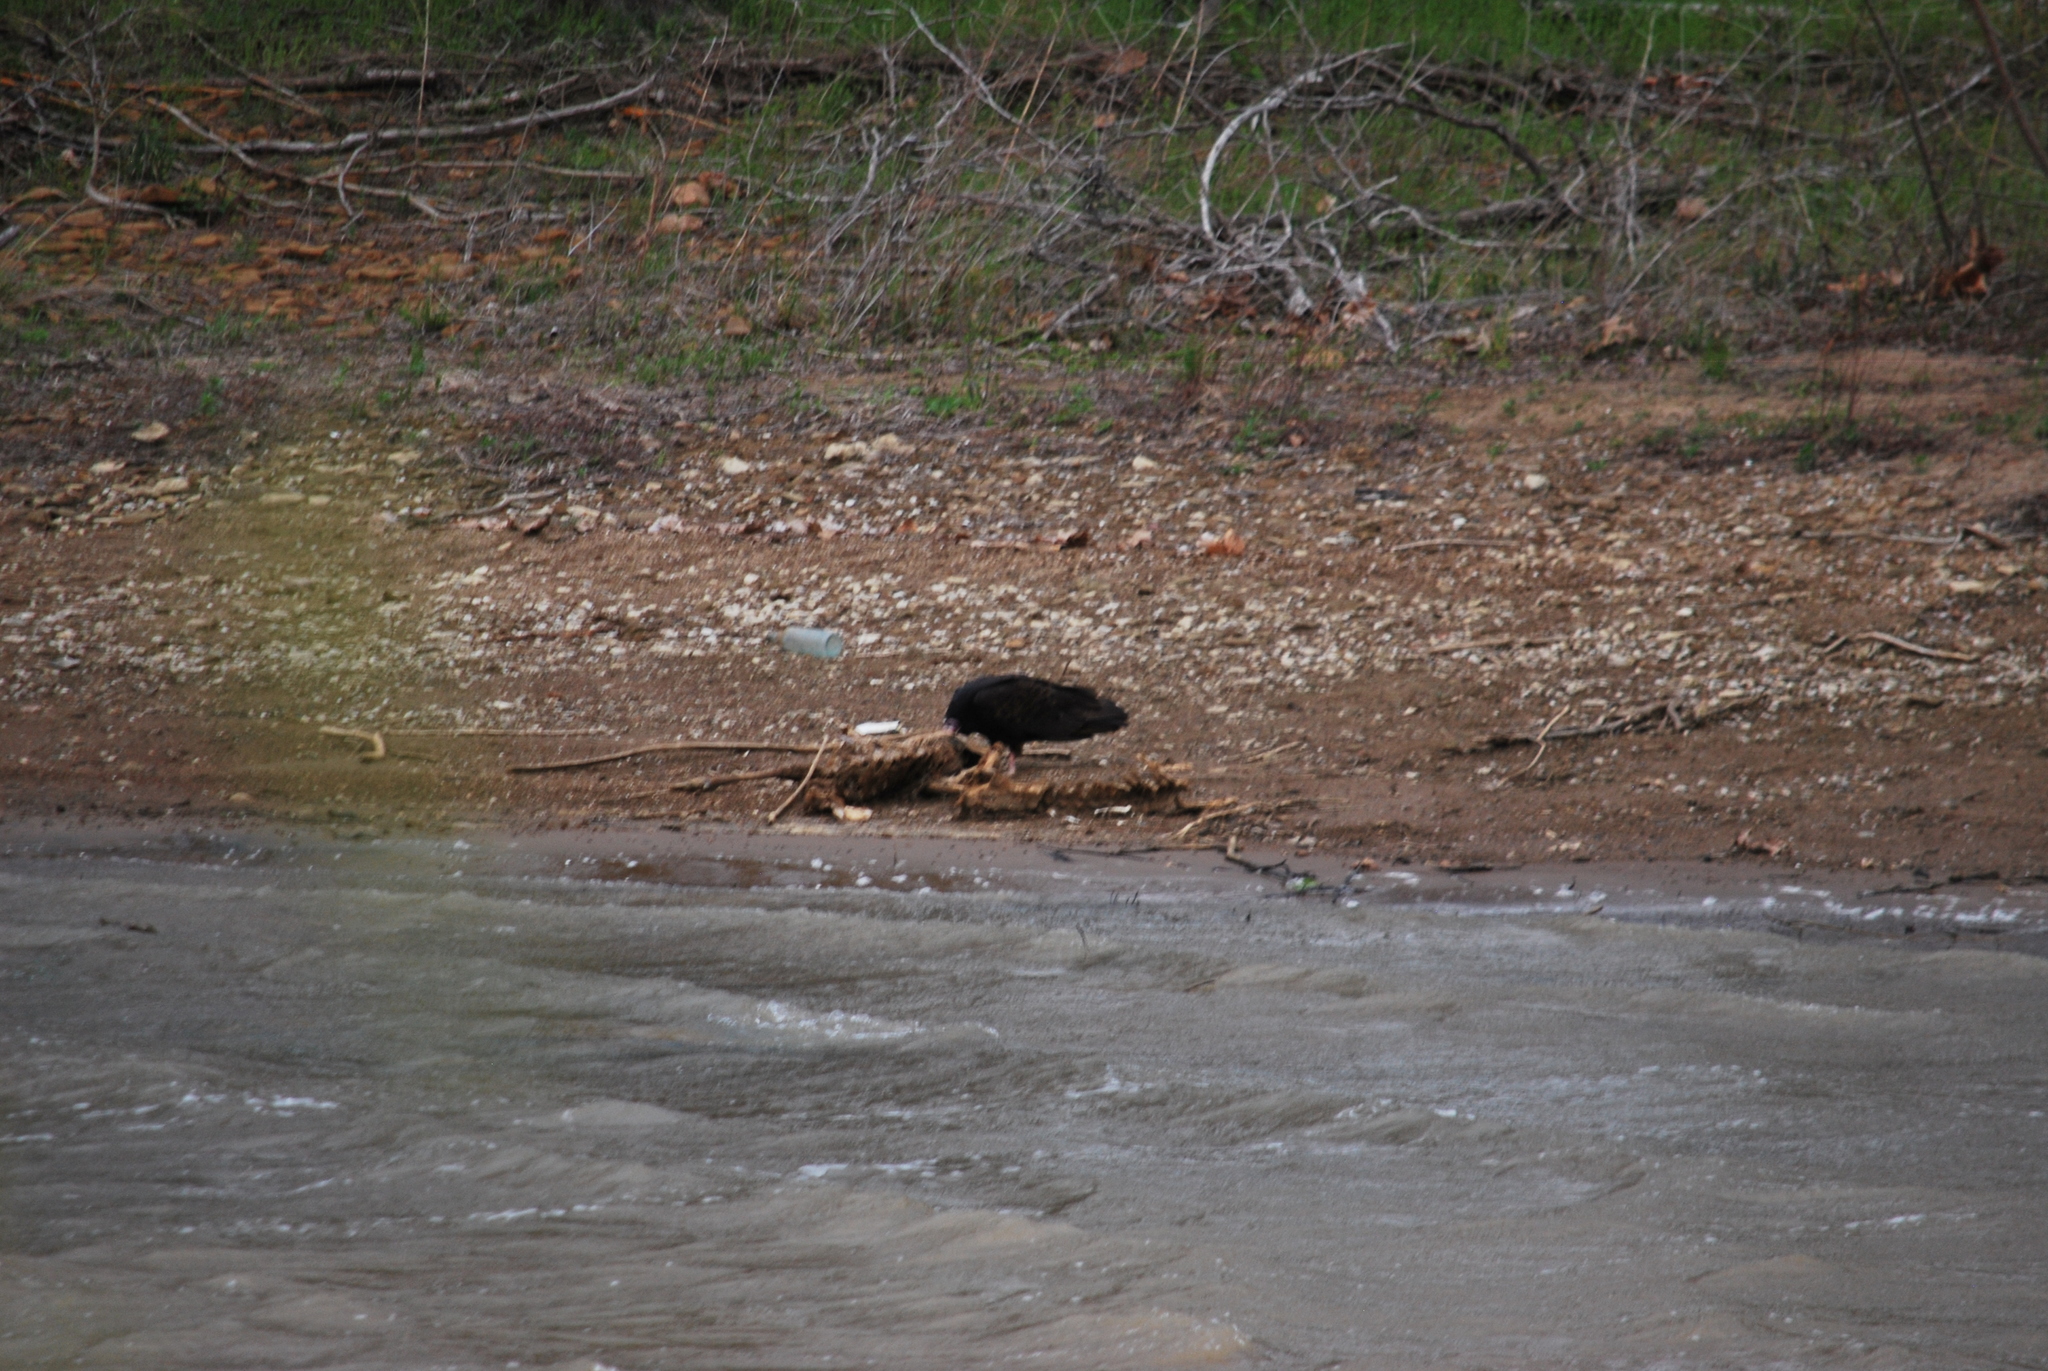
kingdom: Animalia
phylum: Chordata
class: Aves
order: Accipitriformes
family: Cathartidae
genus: Cathartes
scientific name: Cathartes aura
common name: Turkey vulture
